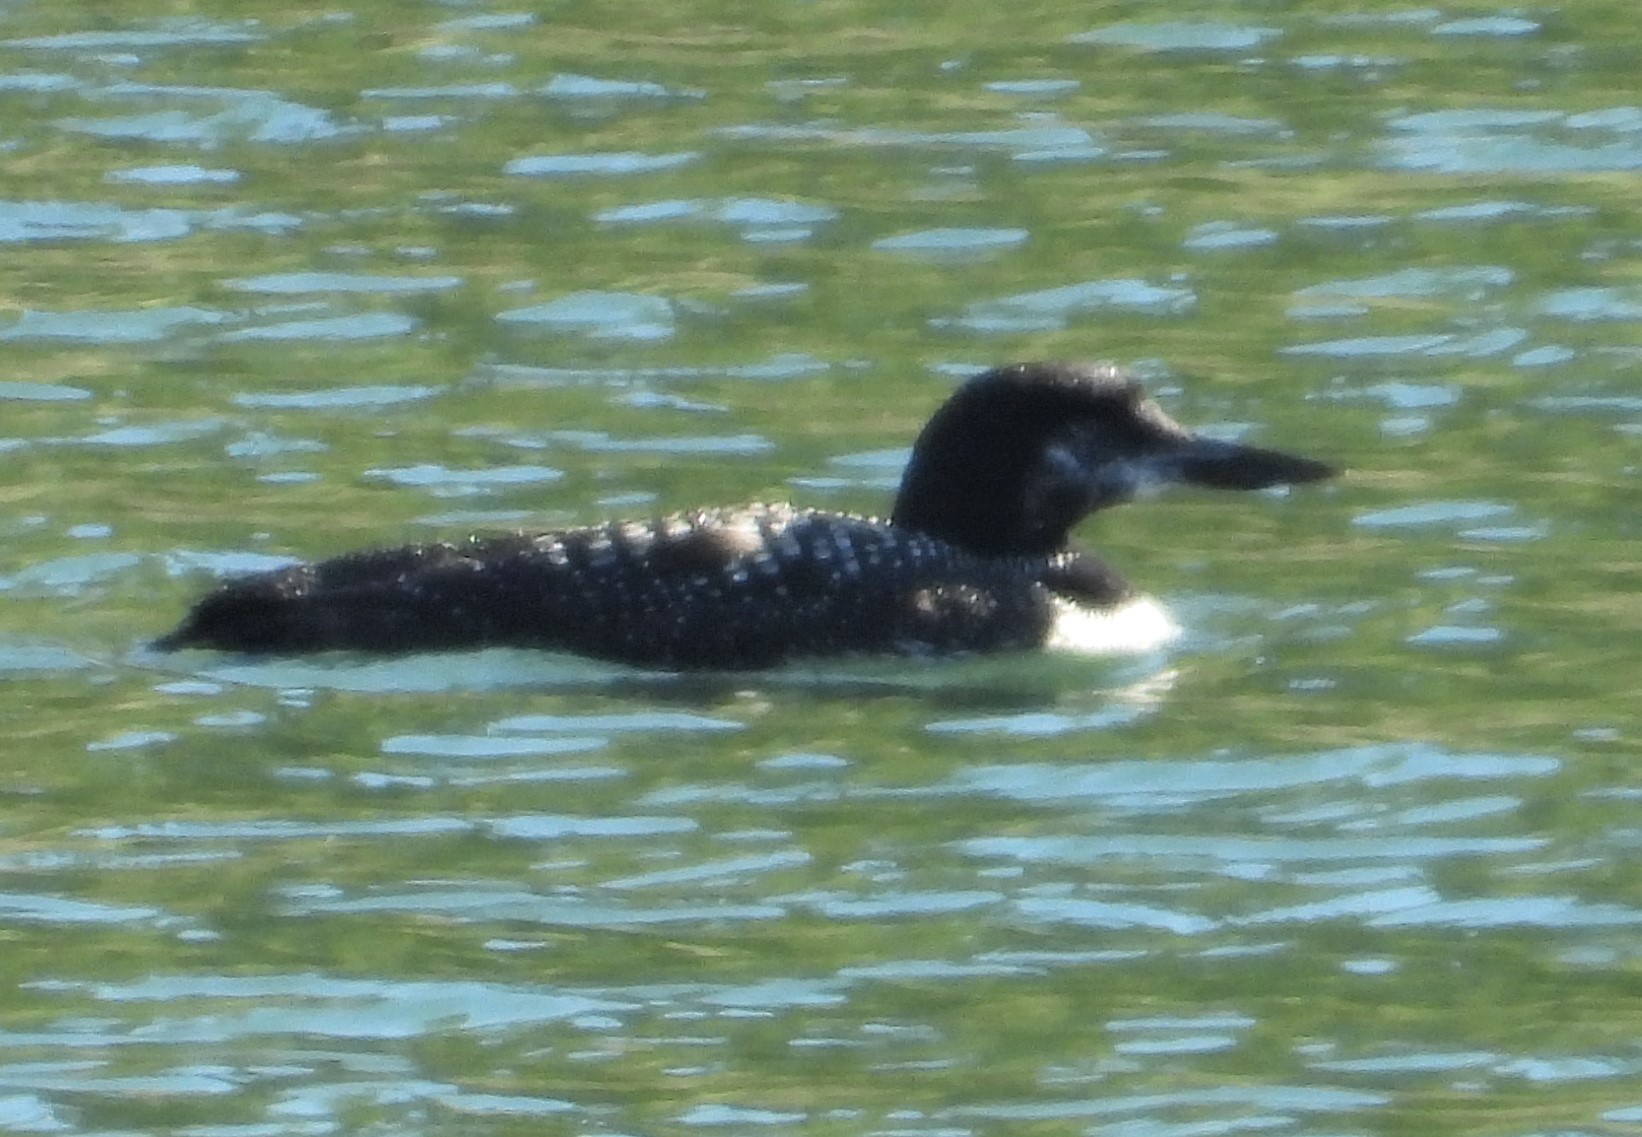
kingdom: Animalia
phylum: Chordata
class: Aves
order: Gaviiformes
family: Gaviidae
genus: Gavia
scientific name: Gavia immer
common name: Common loon
